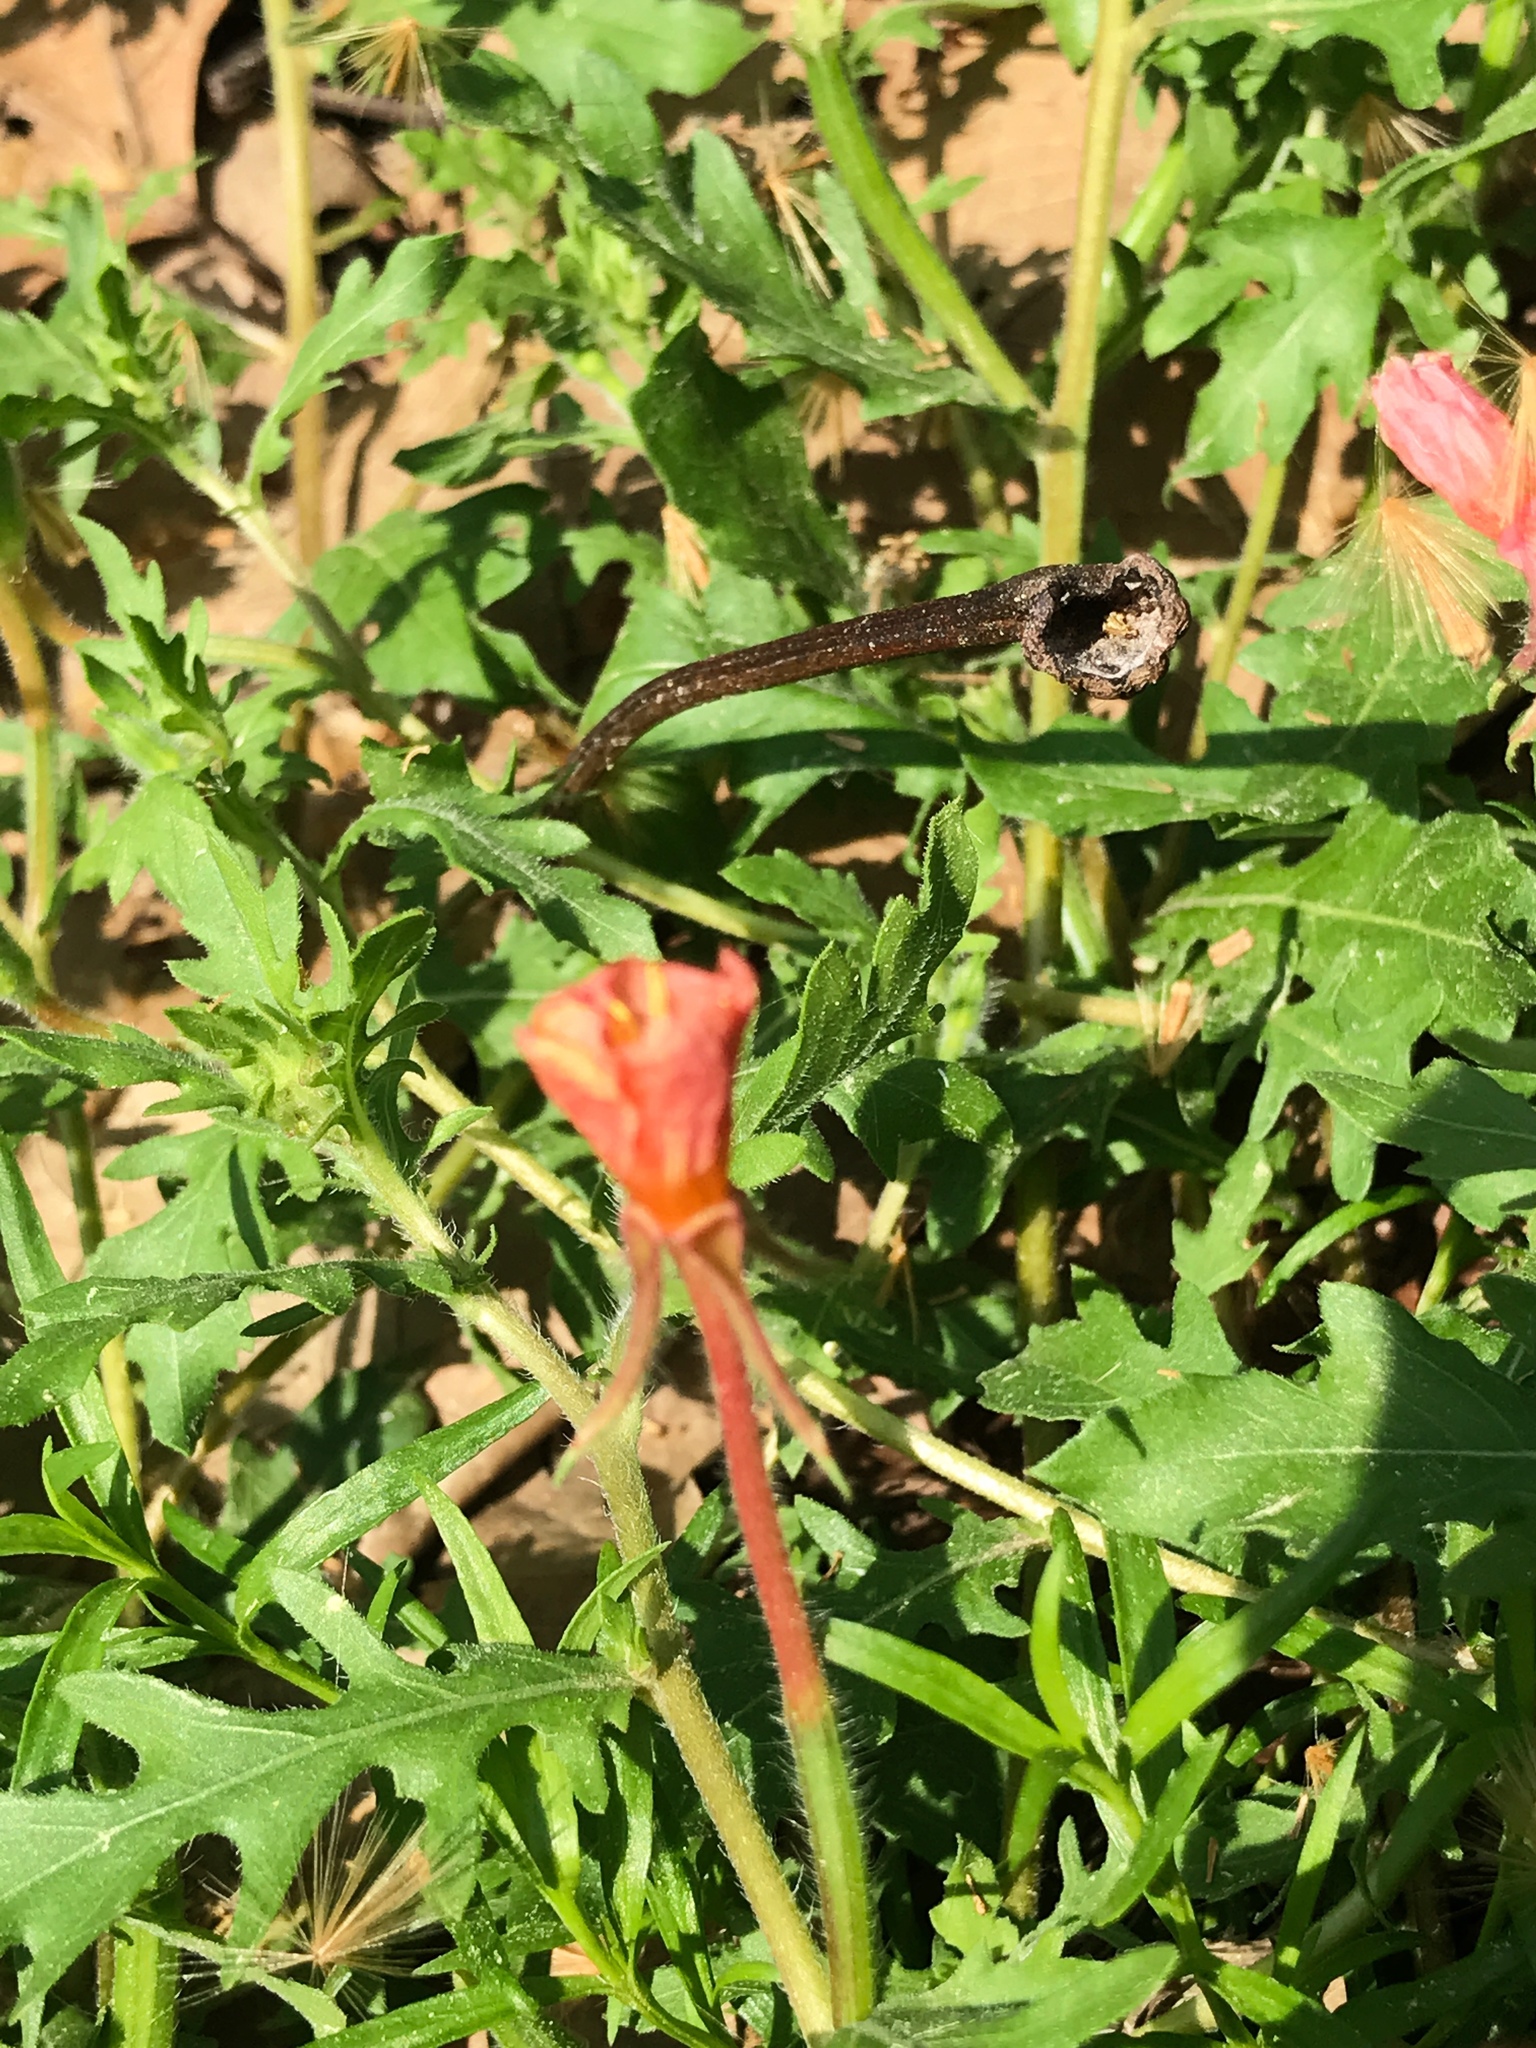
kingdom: Plantae
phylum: Tracheophyta
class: Magnoliopsida
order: Myrtales
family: Onagraceae
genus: Oenothera
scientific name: Oenothera laciniata
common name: Cut-leaved evening-primrose
